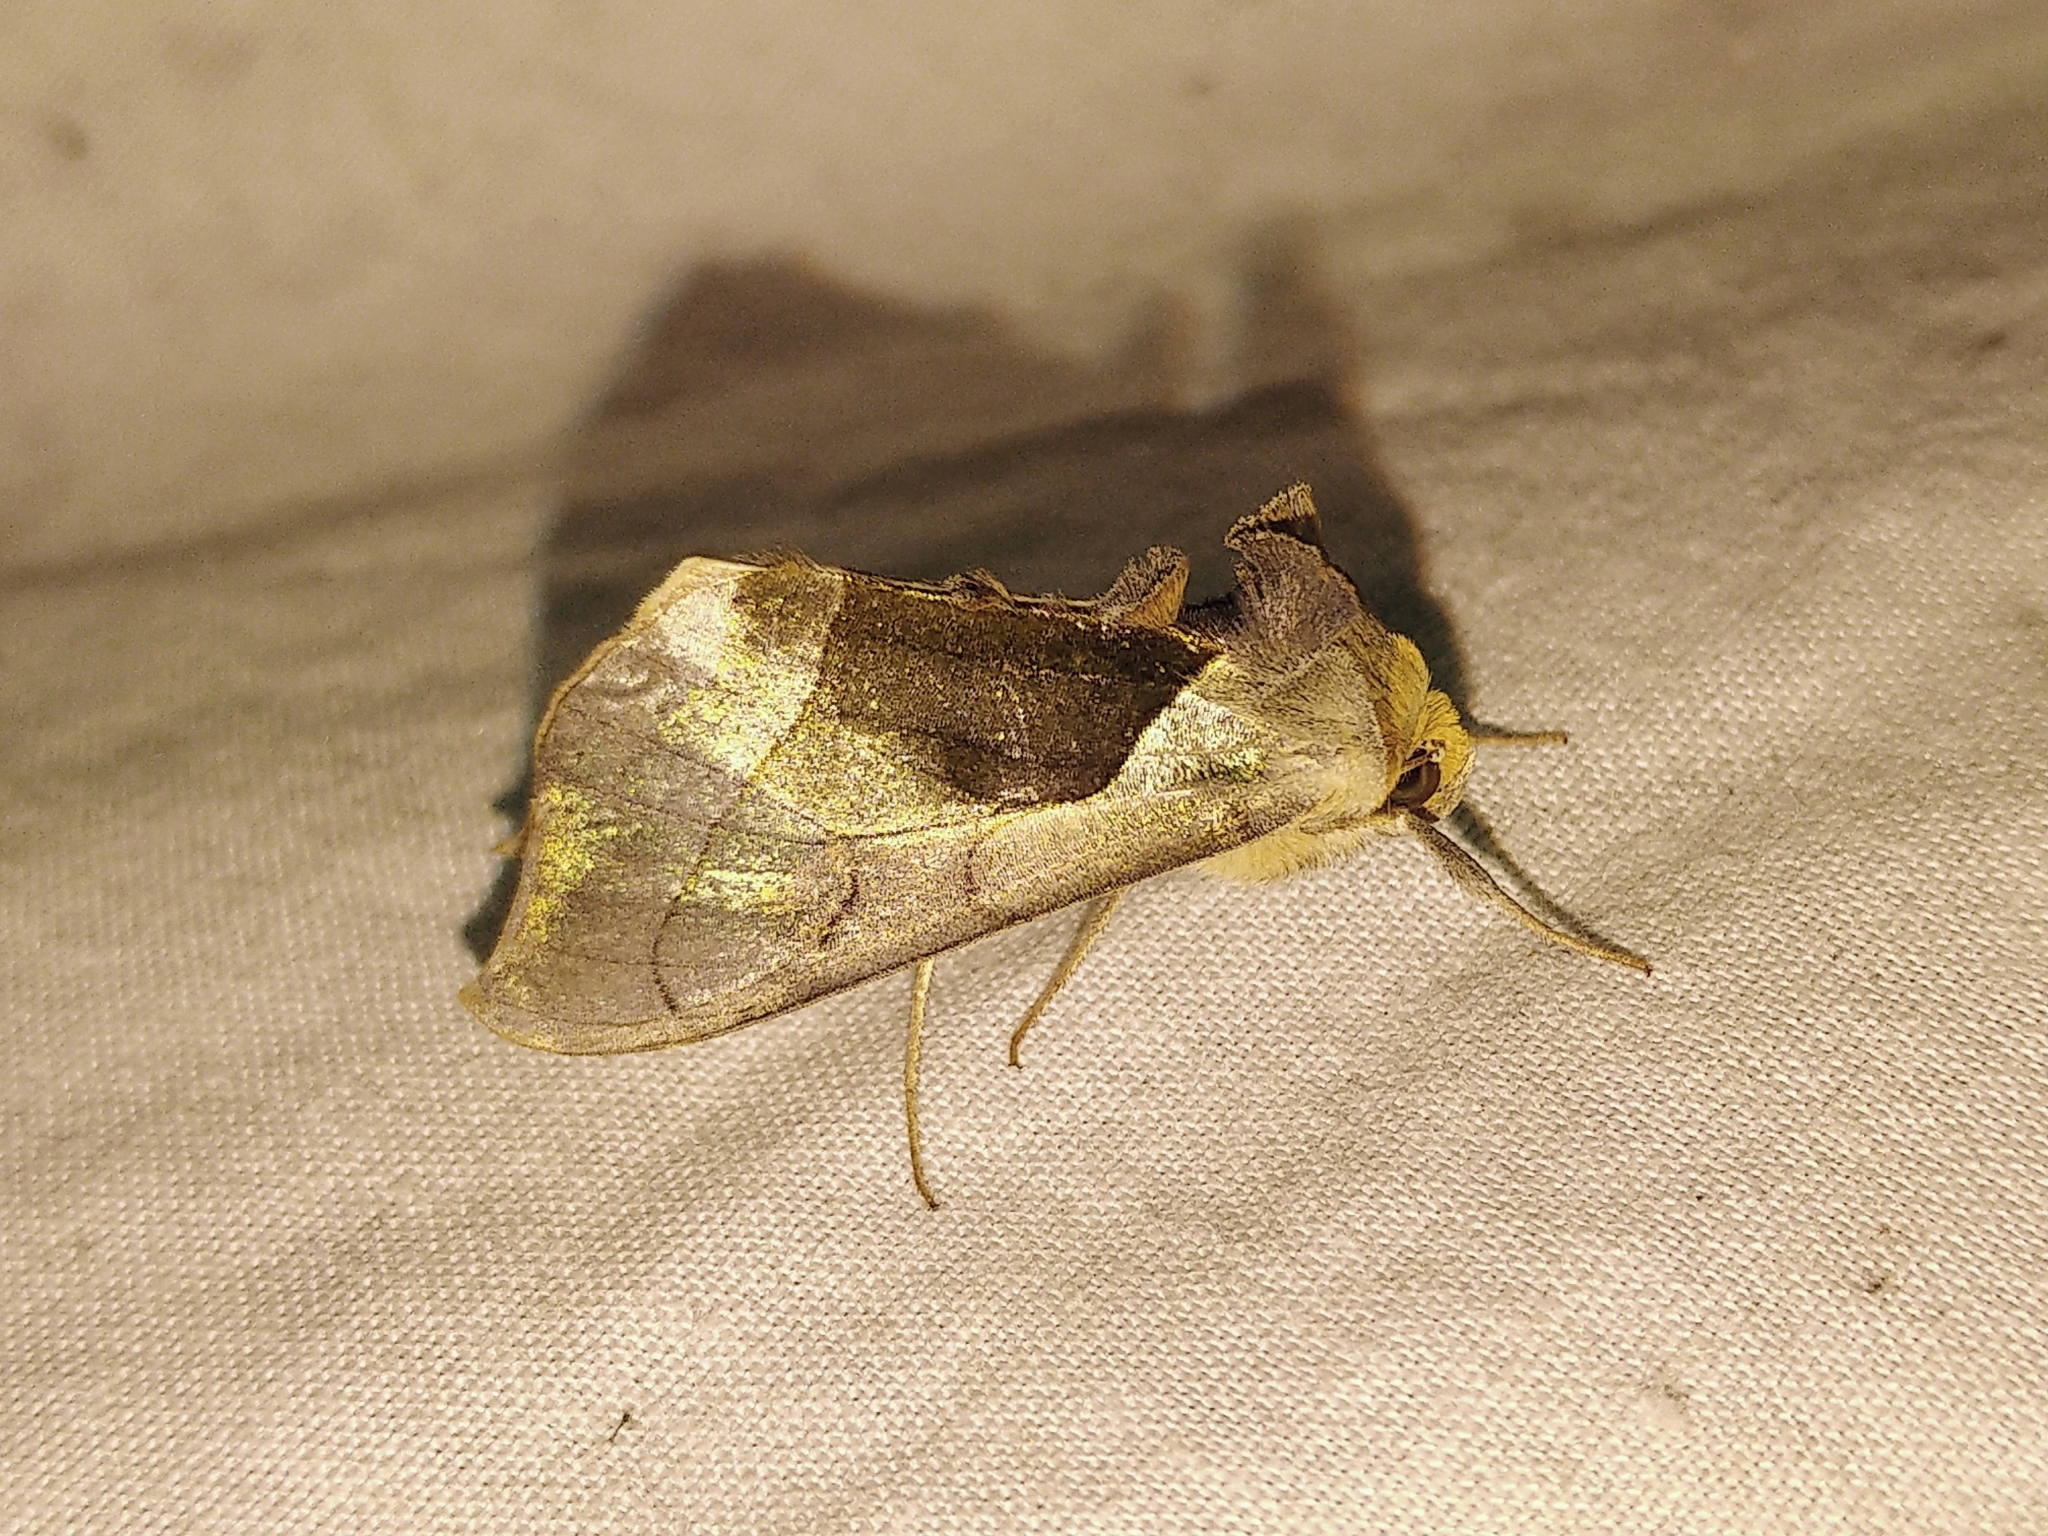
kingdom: Animalia
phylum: Arthropoda
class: Insecta
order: Lepidoptera
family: Noctuidae
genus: Diachrysia
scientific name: Diachrysia balluca
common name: Green-patched looper moth
